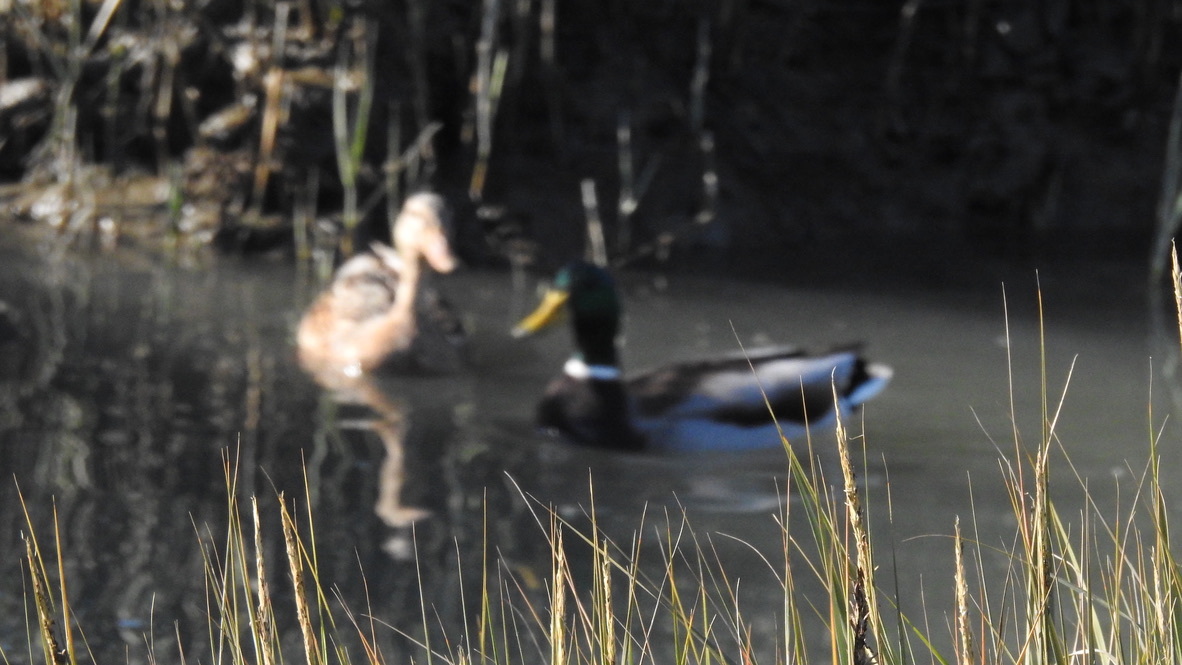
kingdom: Animalia
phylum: Chordata
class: Aves
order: Anseriformes
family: Anatidae
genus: Anas
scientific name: Anas platyrhynchos
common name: Mallard
